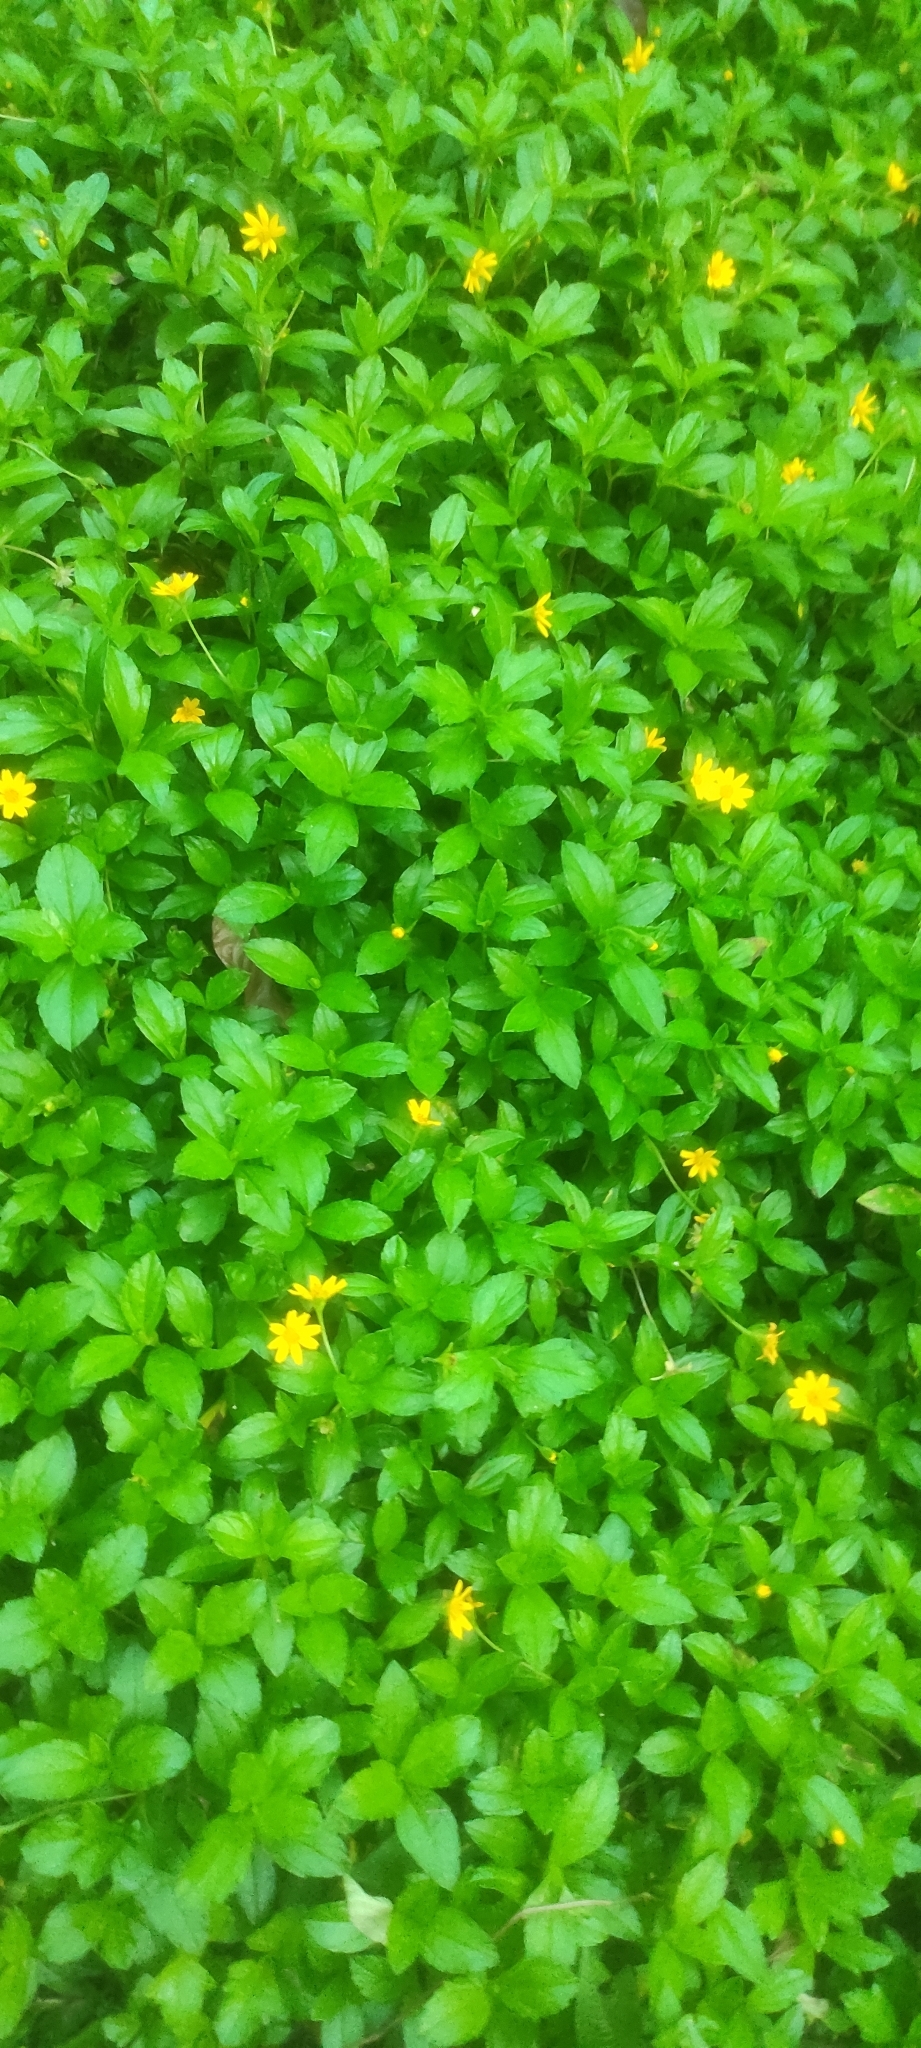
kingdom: Plantae
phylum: Tracheophyta
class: Magnoliopsida
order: Asterales
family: Asteraceae
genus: Sphagneticola
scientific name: Sphagneticola trilobata
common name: Bay biscayne creeping-oxeye
